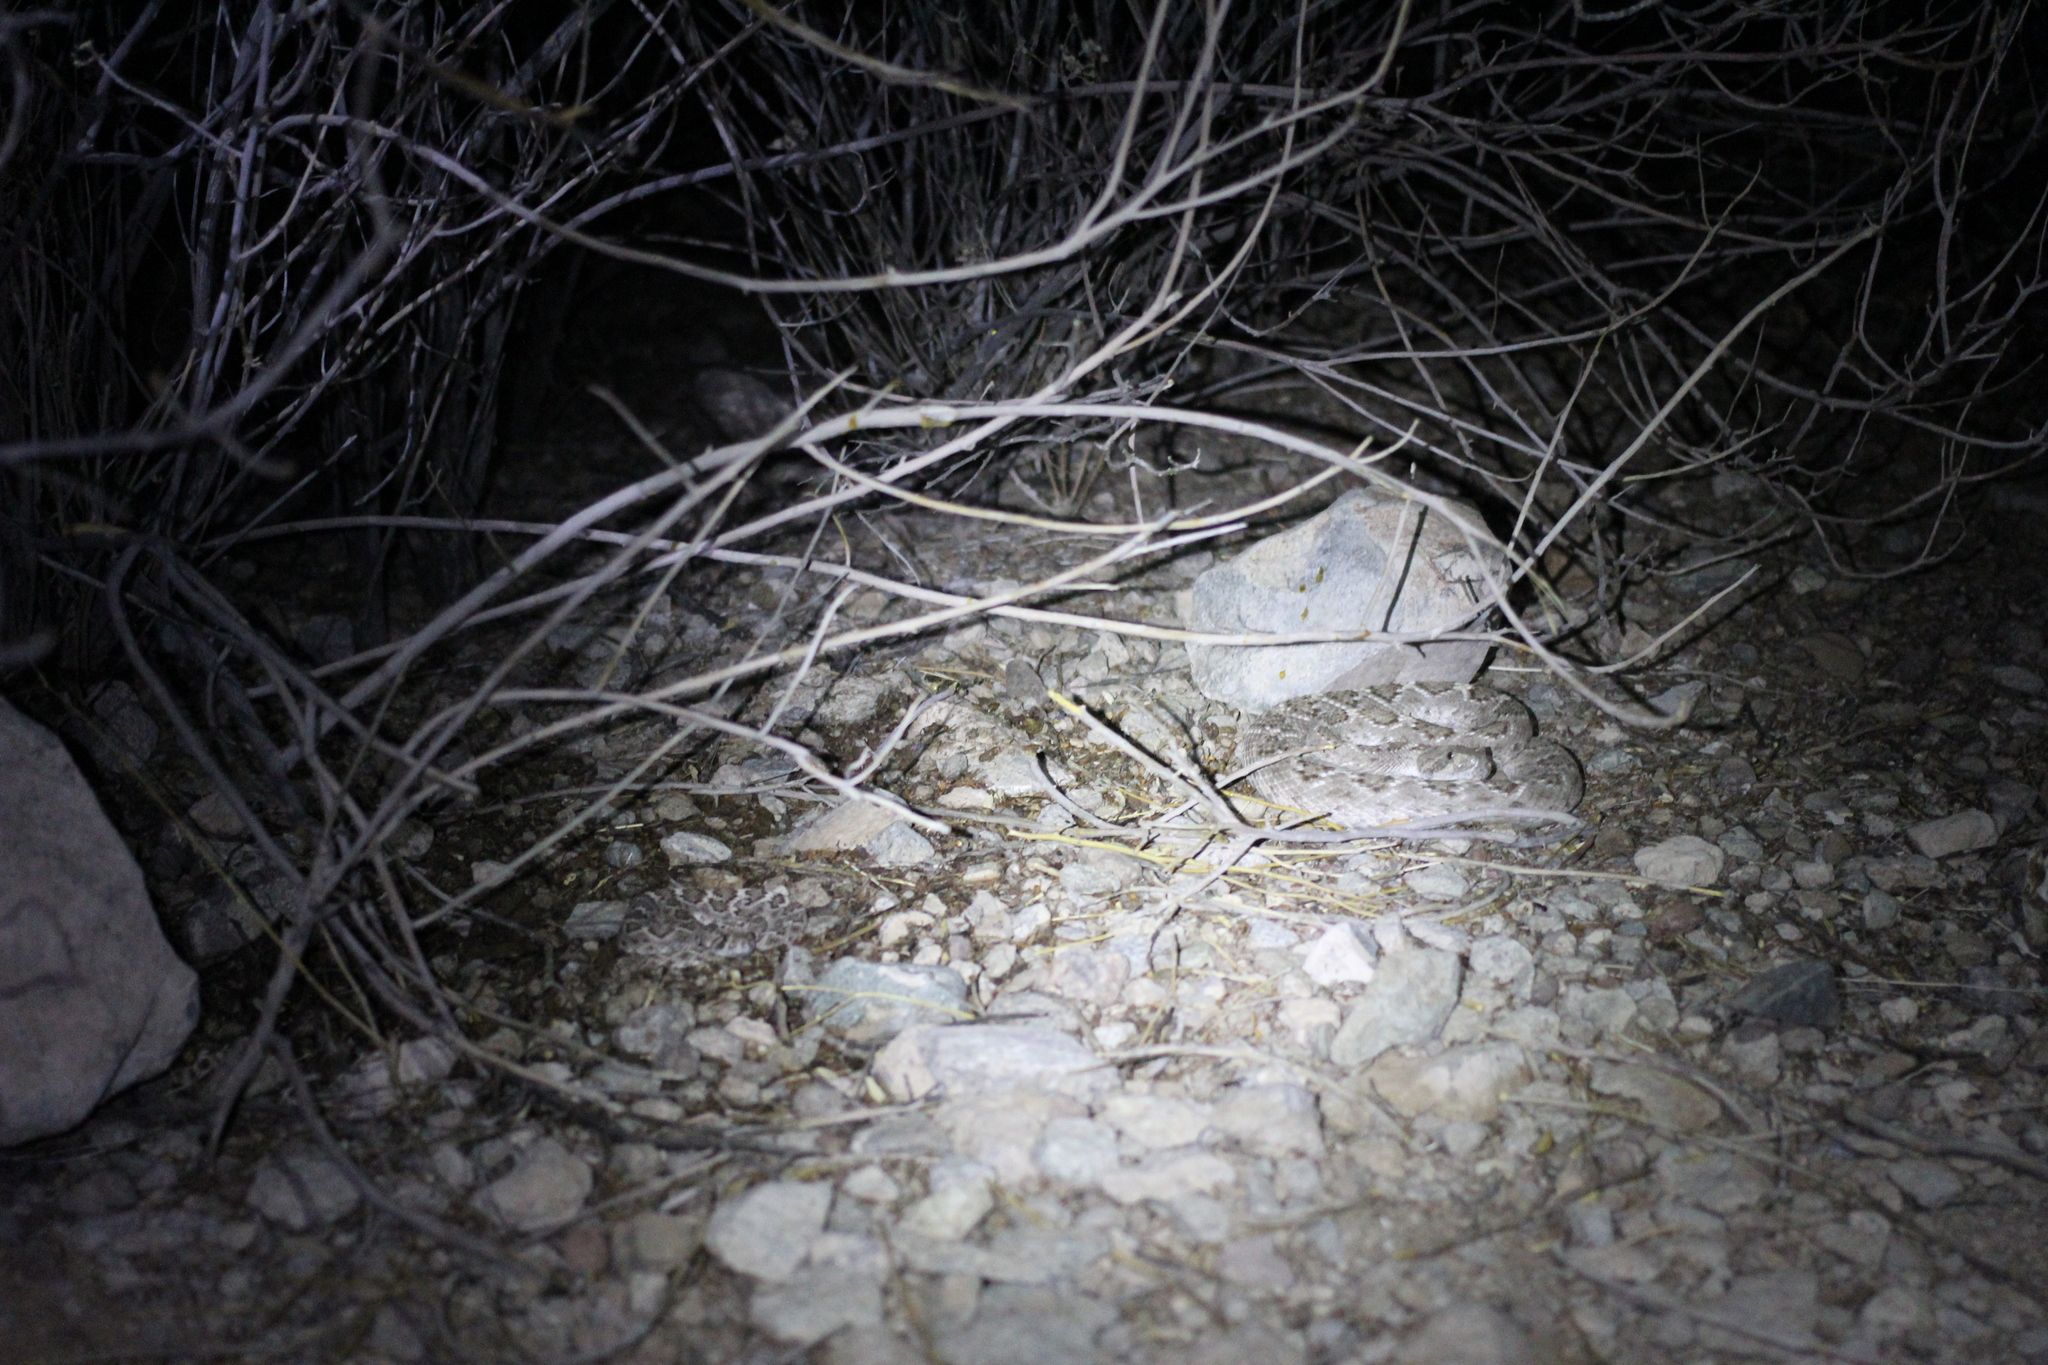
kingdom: Animalia
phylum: Chordata
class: Squamata
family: Viperidae
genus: Crotalus
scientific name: Crotalus atrox
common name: Western diamond-backed rattlesnake
